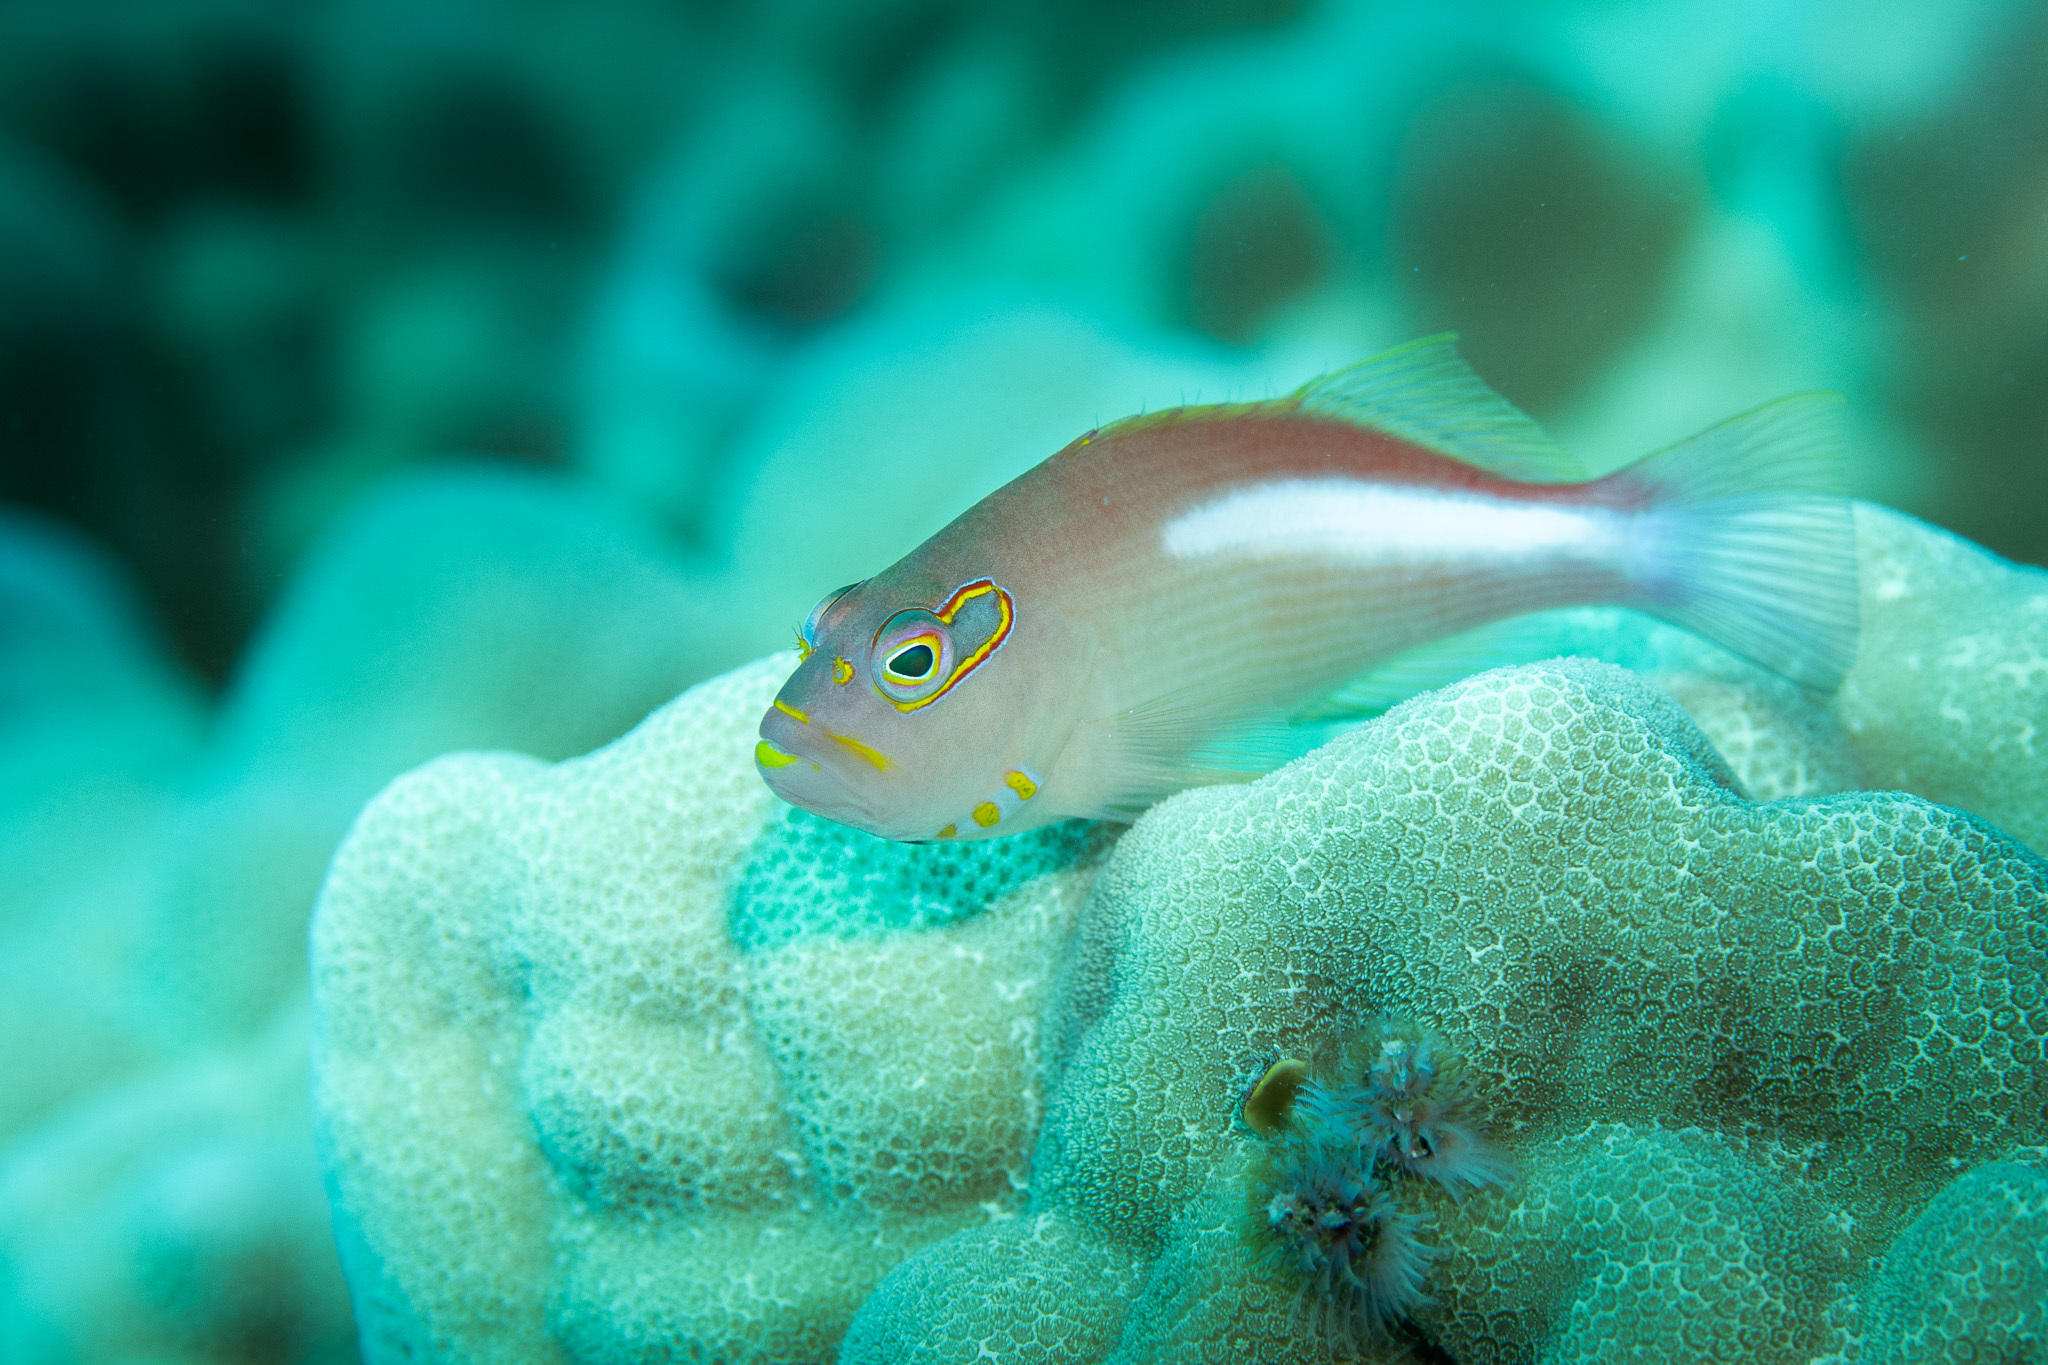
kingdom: Animalia
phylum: Chordata
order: Perciformes
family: Cirrhitidae
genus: Paracirrhites
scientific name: Paracirrhites arcatus
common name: Arc-eye hawkfish
